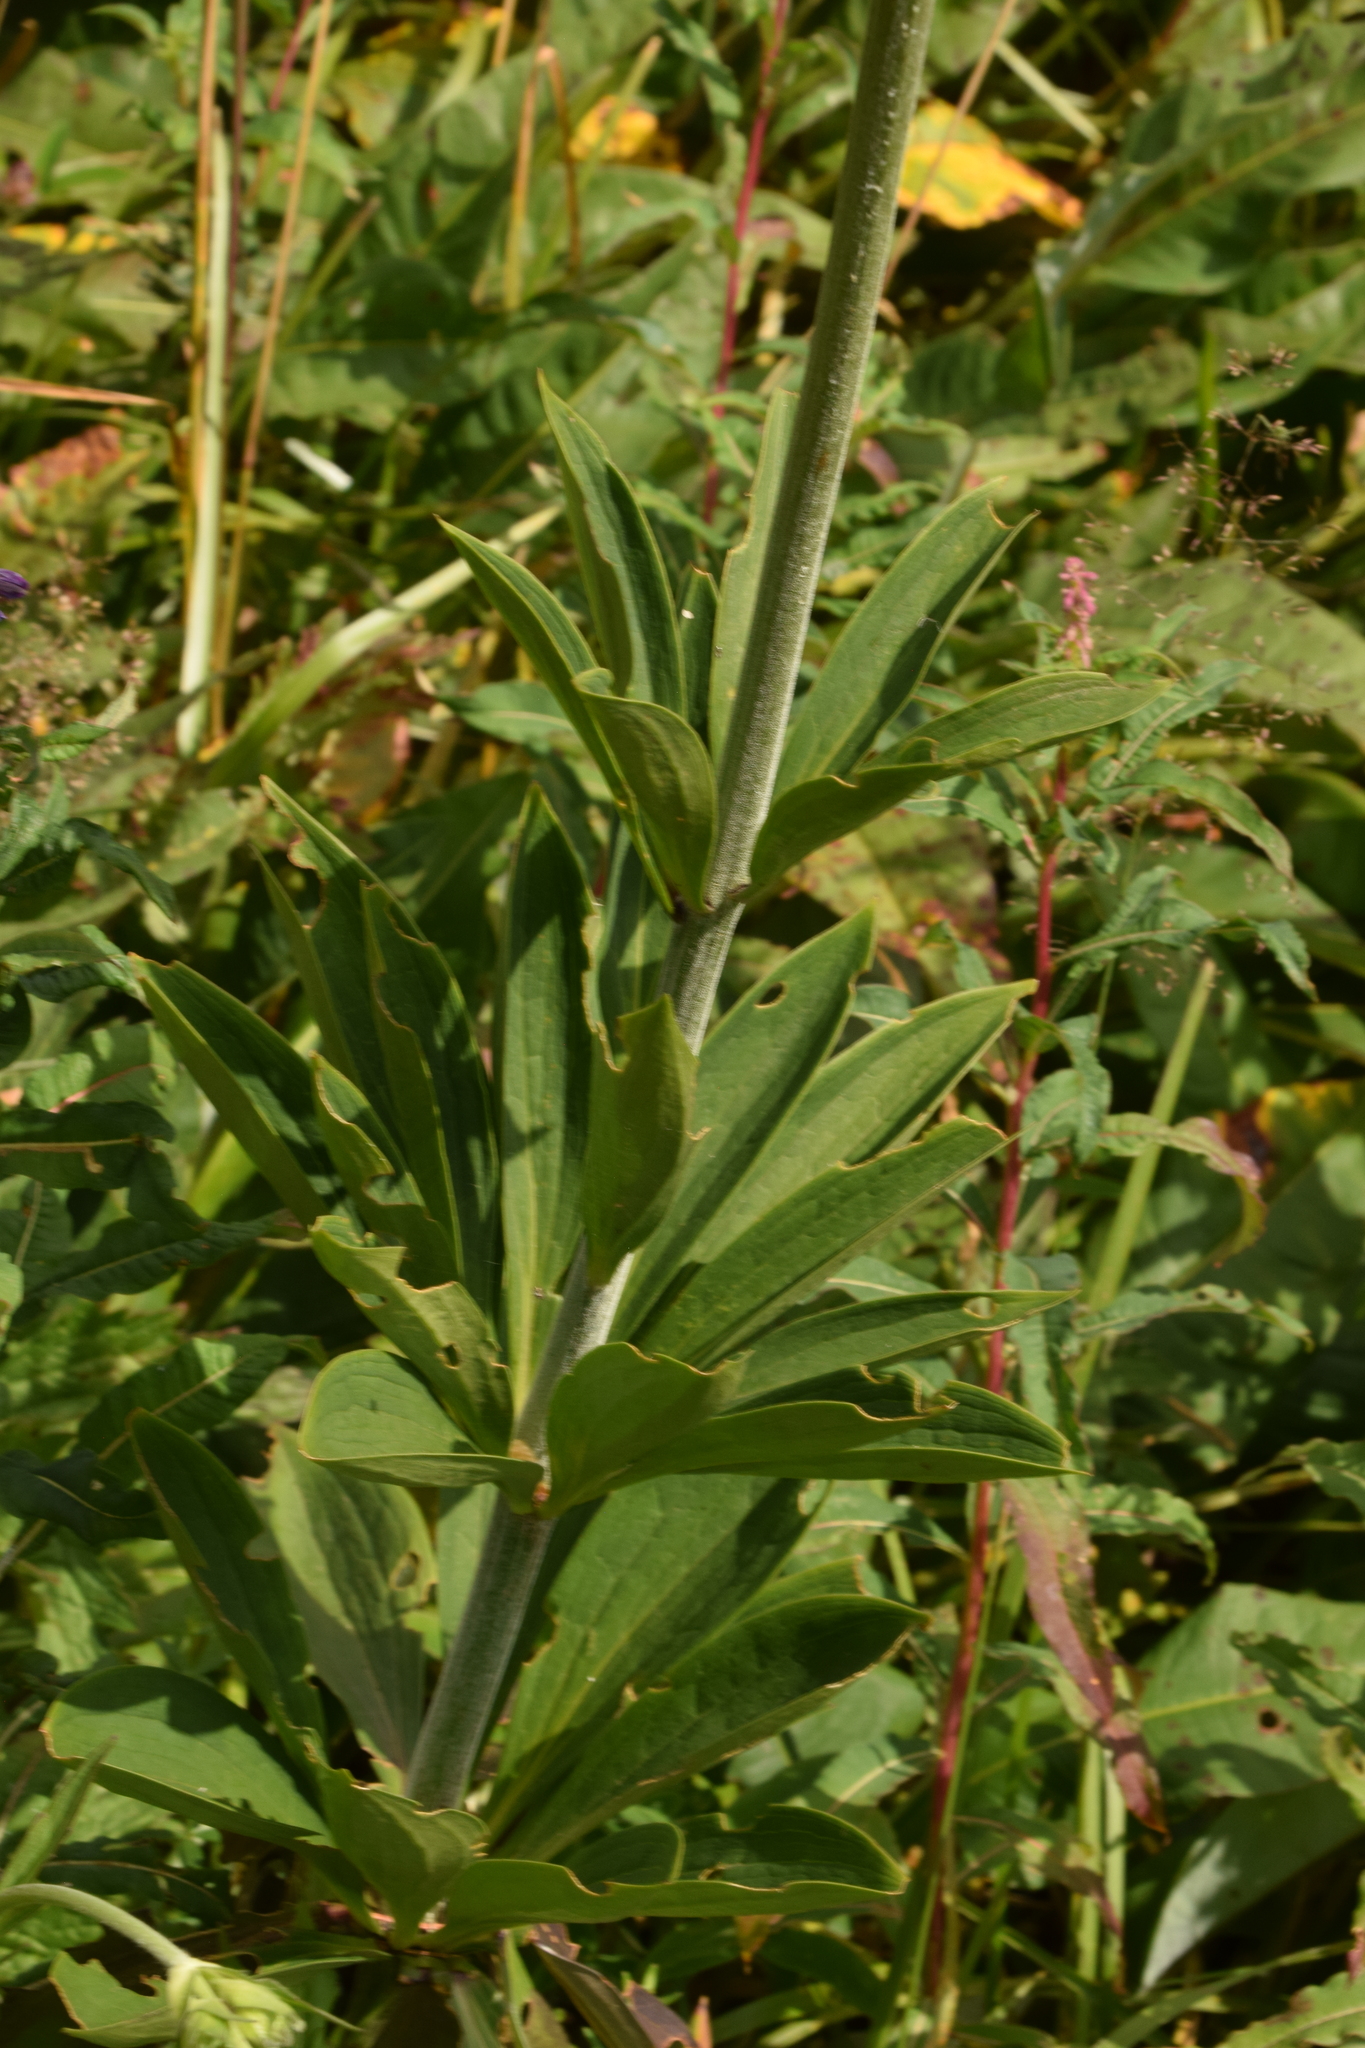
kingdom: Plantae
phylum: Tracheophyta
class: Liliopsida
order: Liliales
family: Liliaceae
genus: Lilium
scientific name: Lilium martagon
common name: Martagon lily
